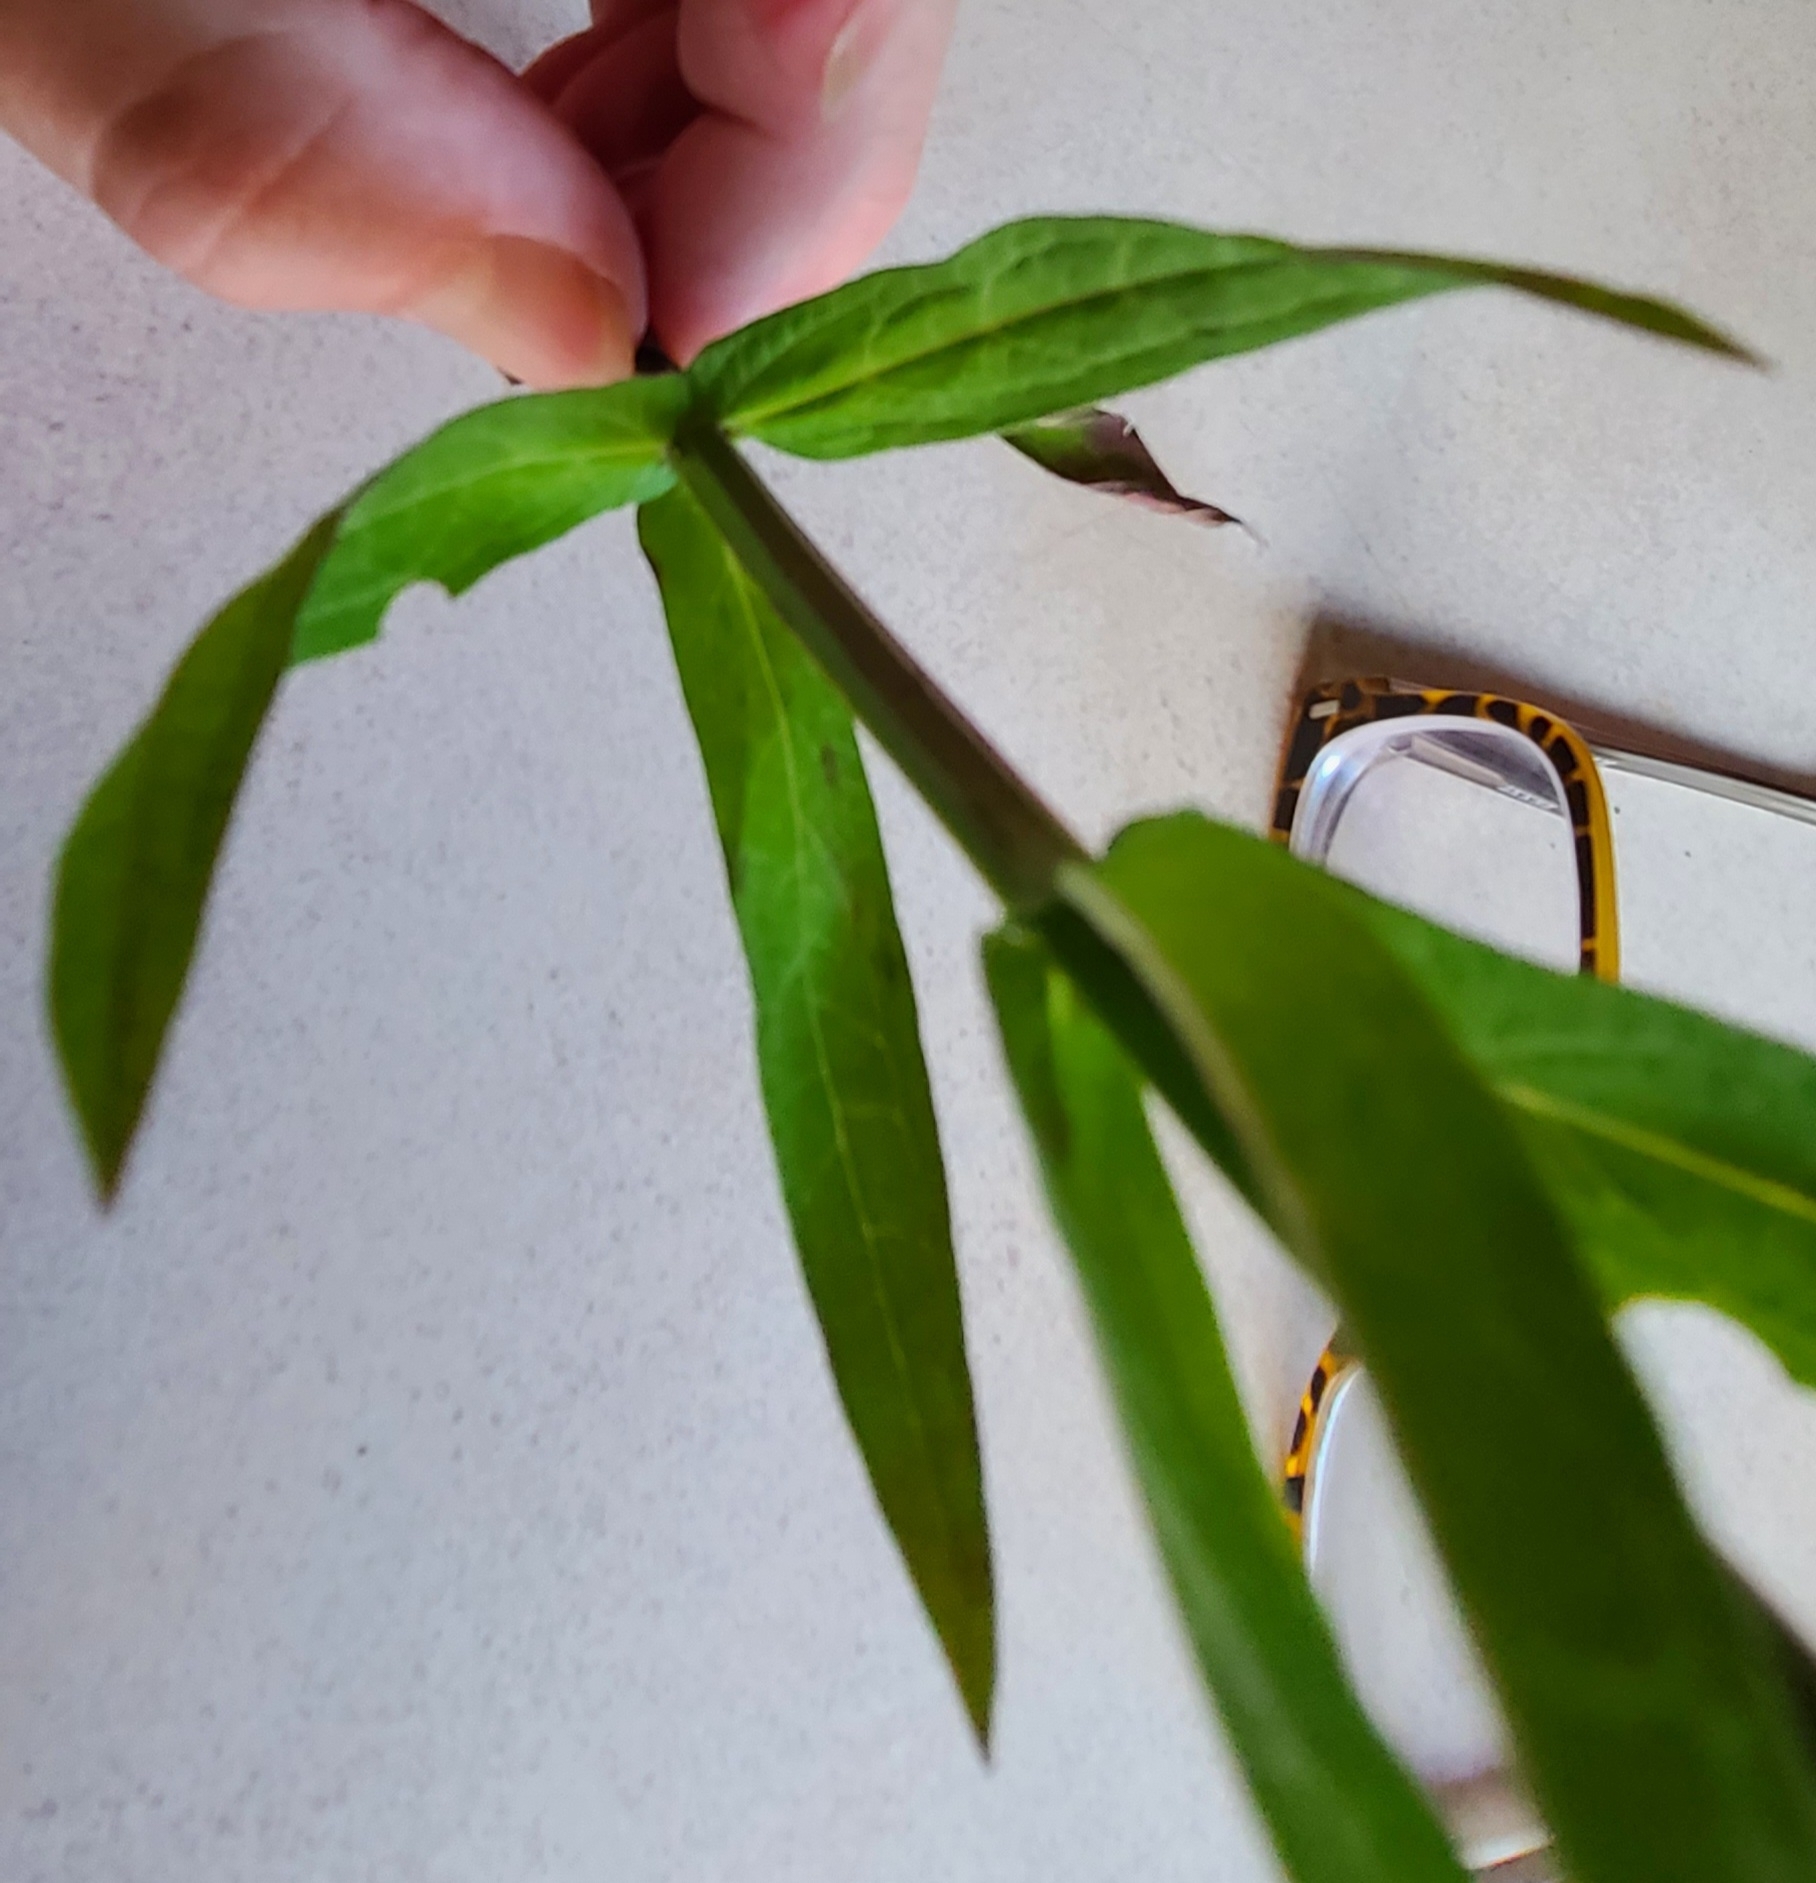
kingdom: Plantae
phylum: Tracheophyta
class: Magnoliopsida
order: Myrtales
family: Lythraceae
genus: Lythrum
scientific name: Lythrum salicaria
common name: Purple loosestrife
